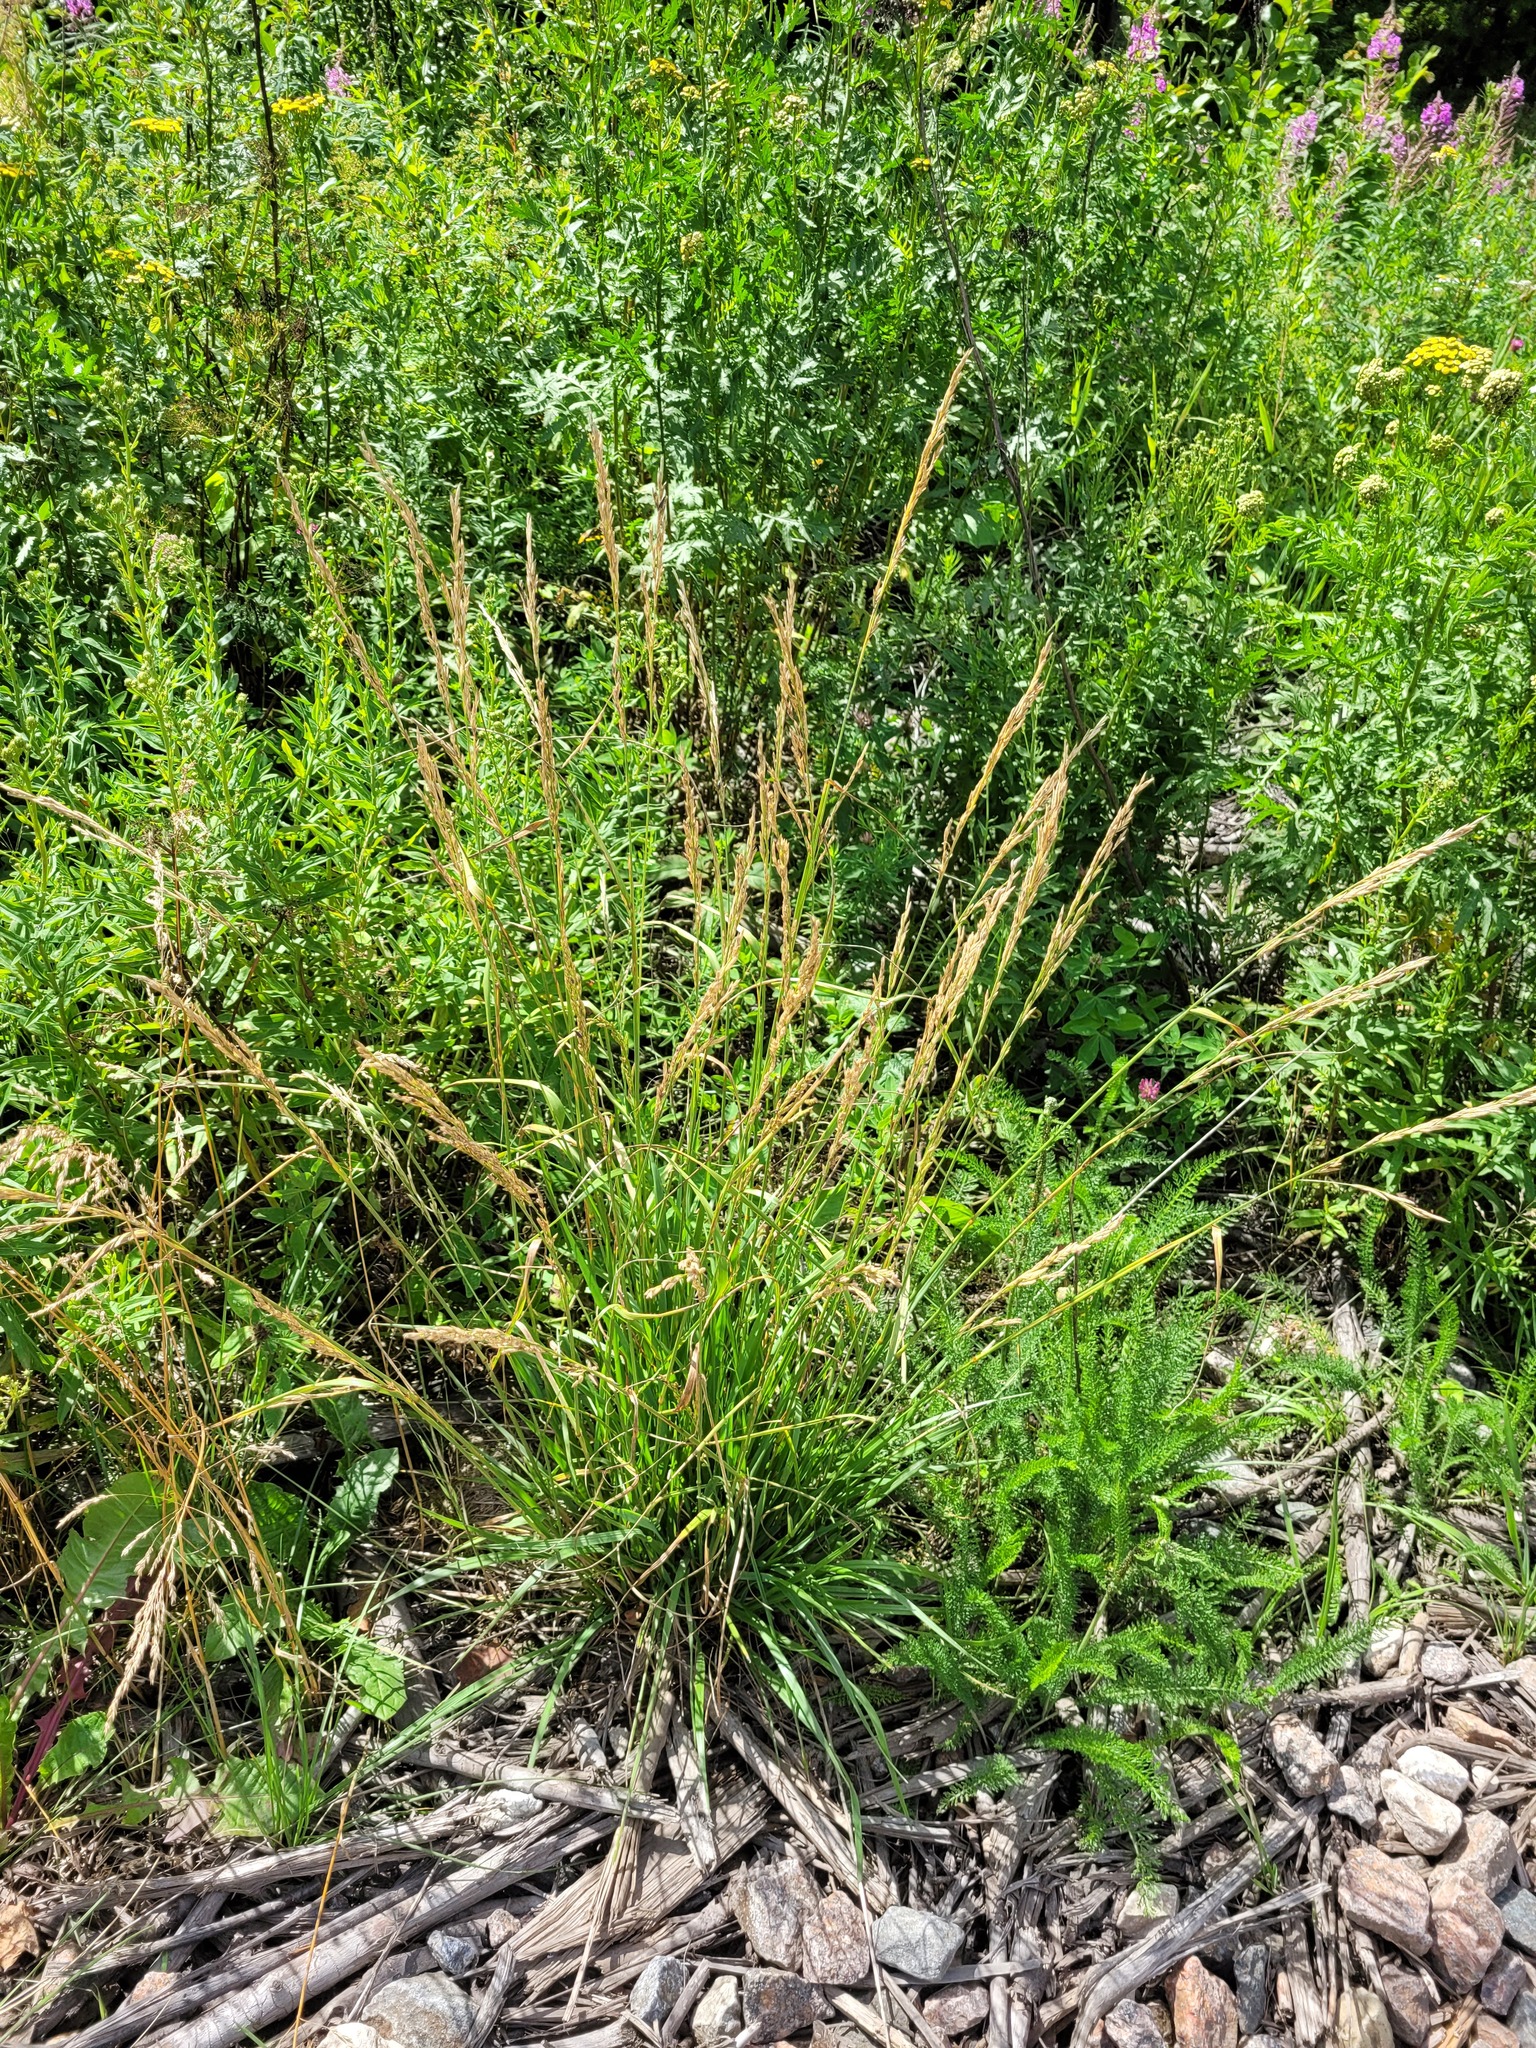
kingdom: Plantae
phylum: Tracheophyta
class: Liliopsida
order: Poales
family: Poaceae
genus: Lolium
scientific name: Lolium arundinaceum
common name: Reed fescue
